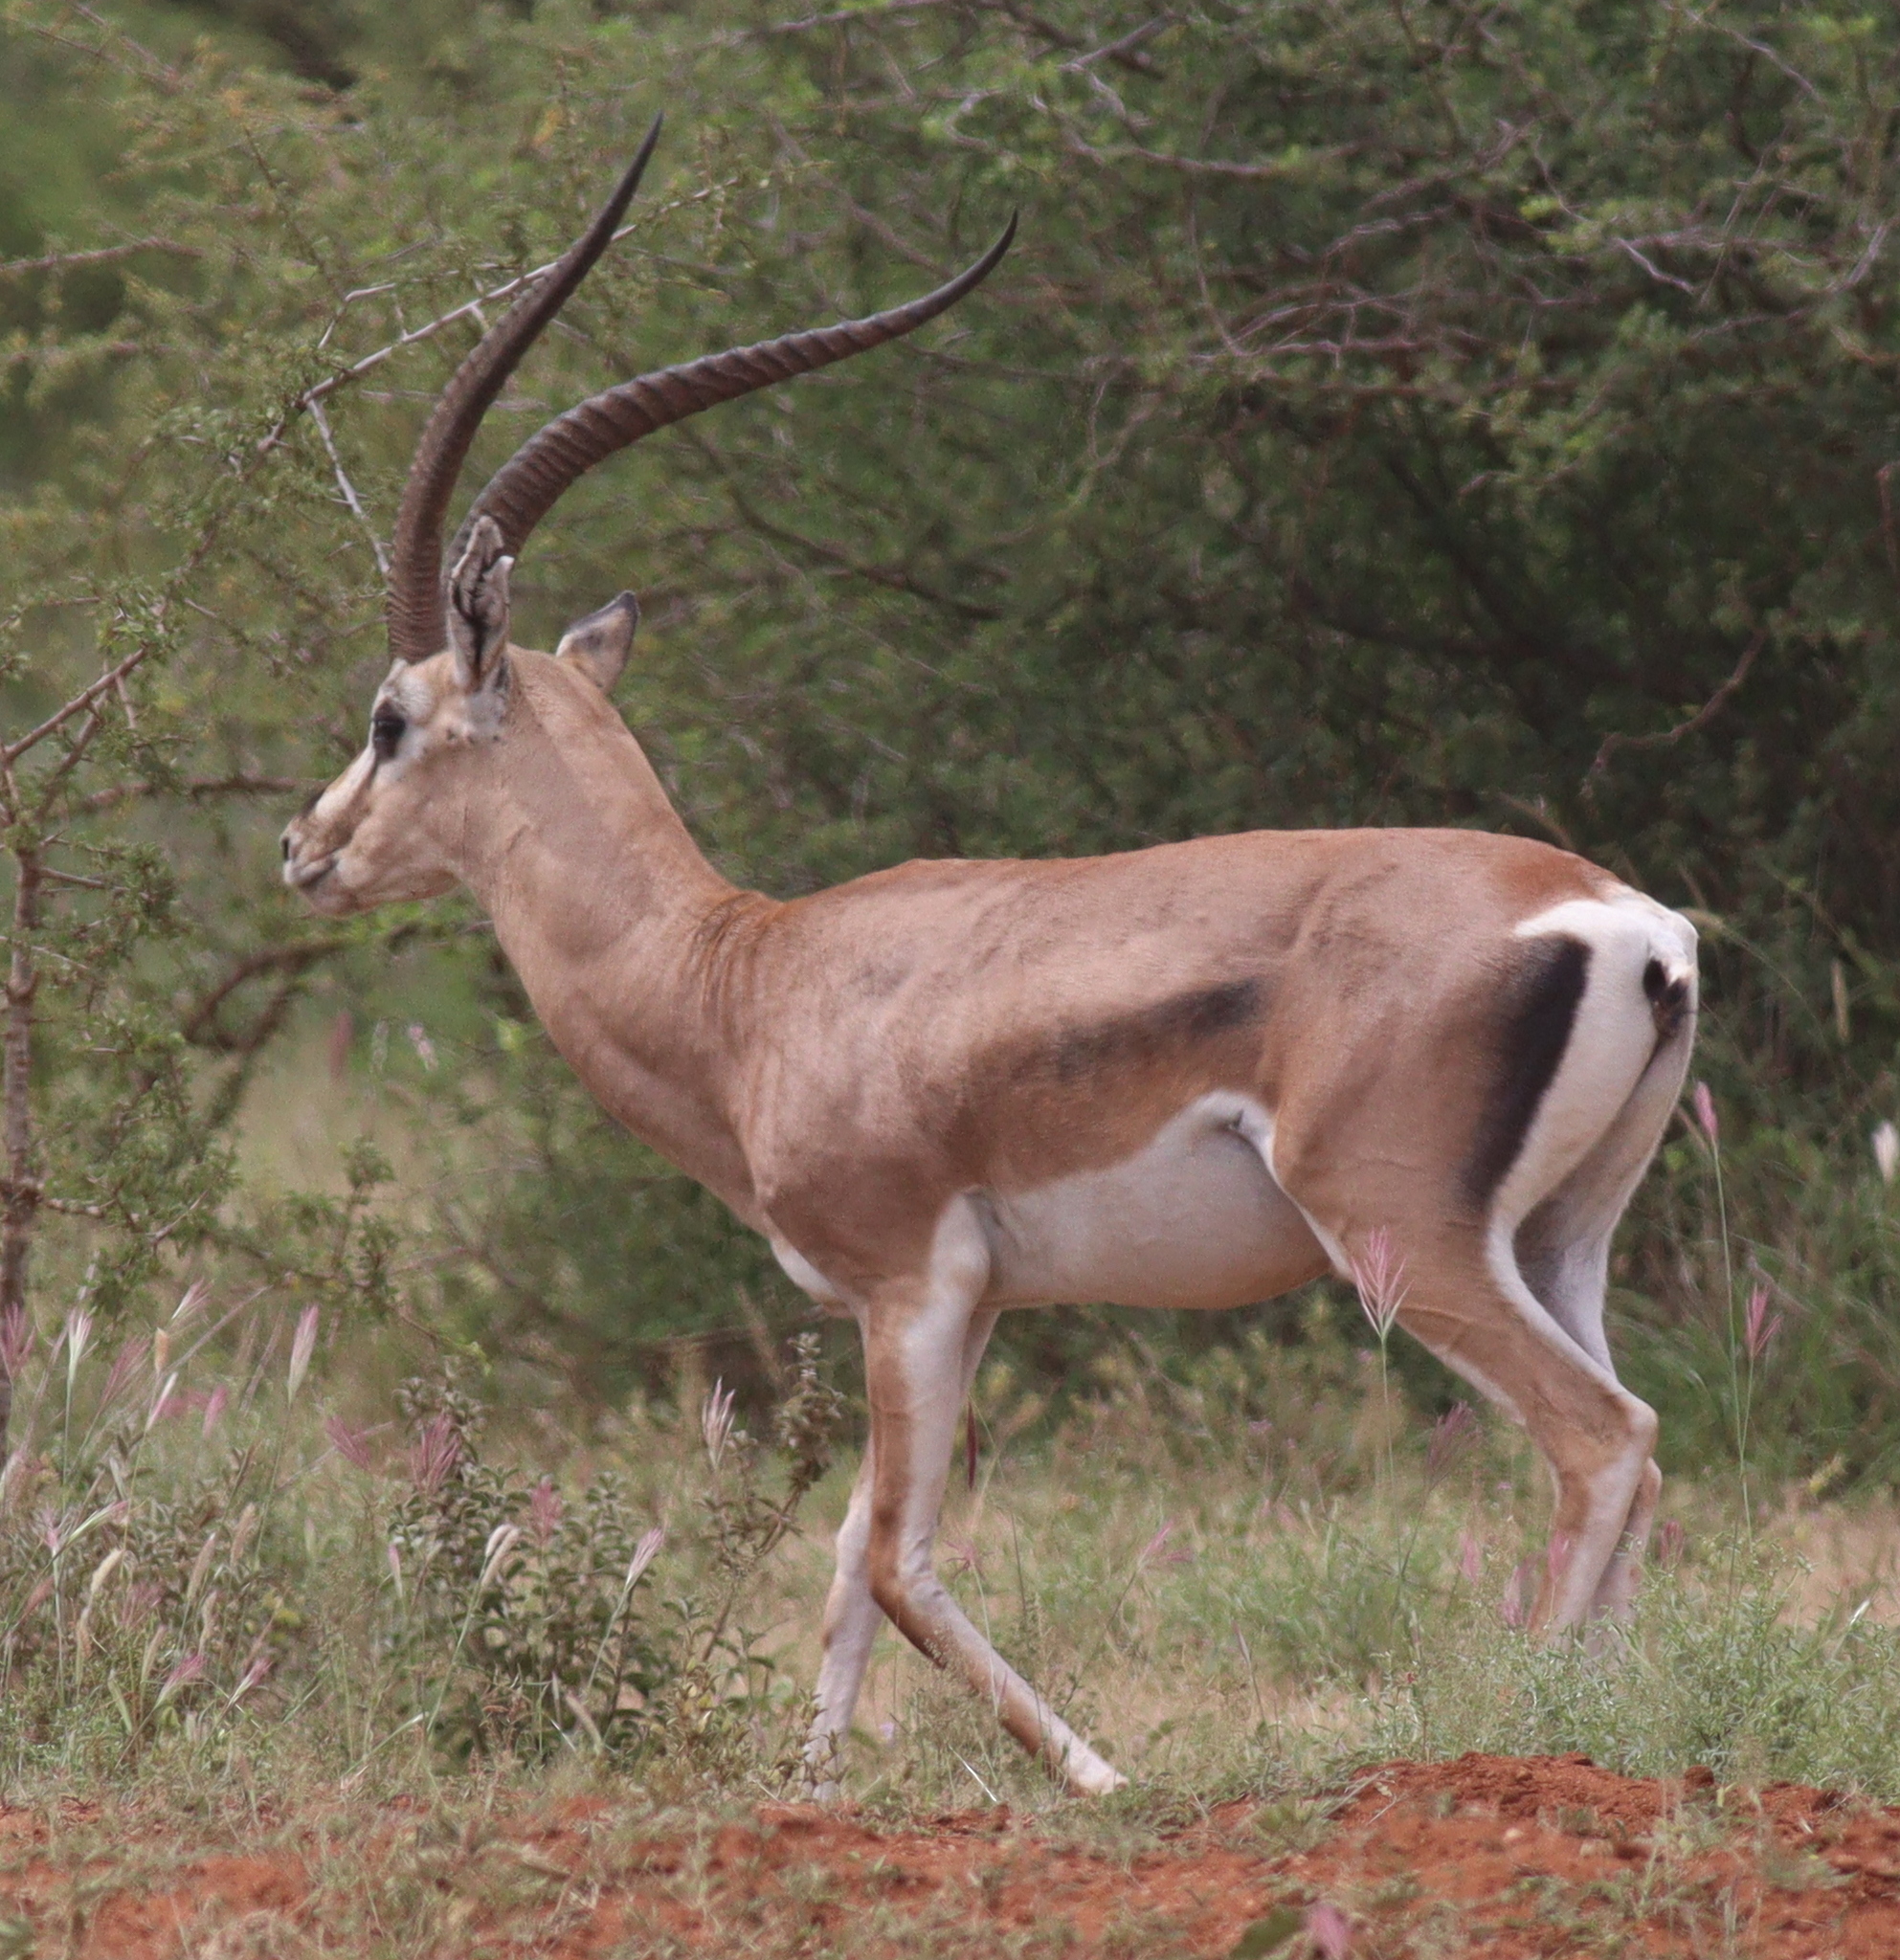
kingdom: Animalia
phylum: Chordata
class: Mammalia
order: Artiodactyla
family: Bovidae
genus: Nanger
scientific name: Nanger granti
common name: Grant's gazelle
